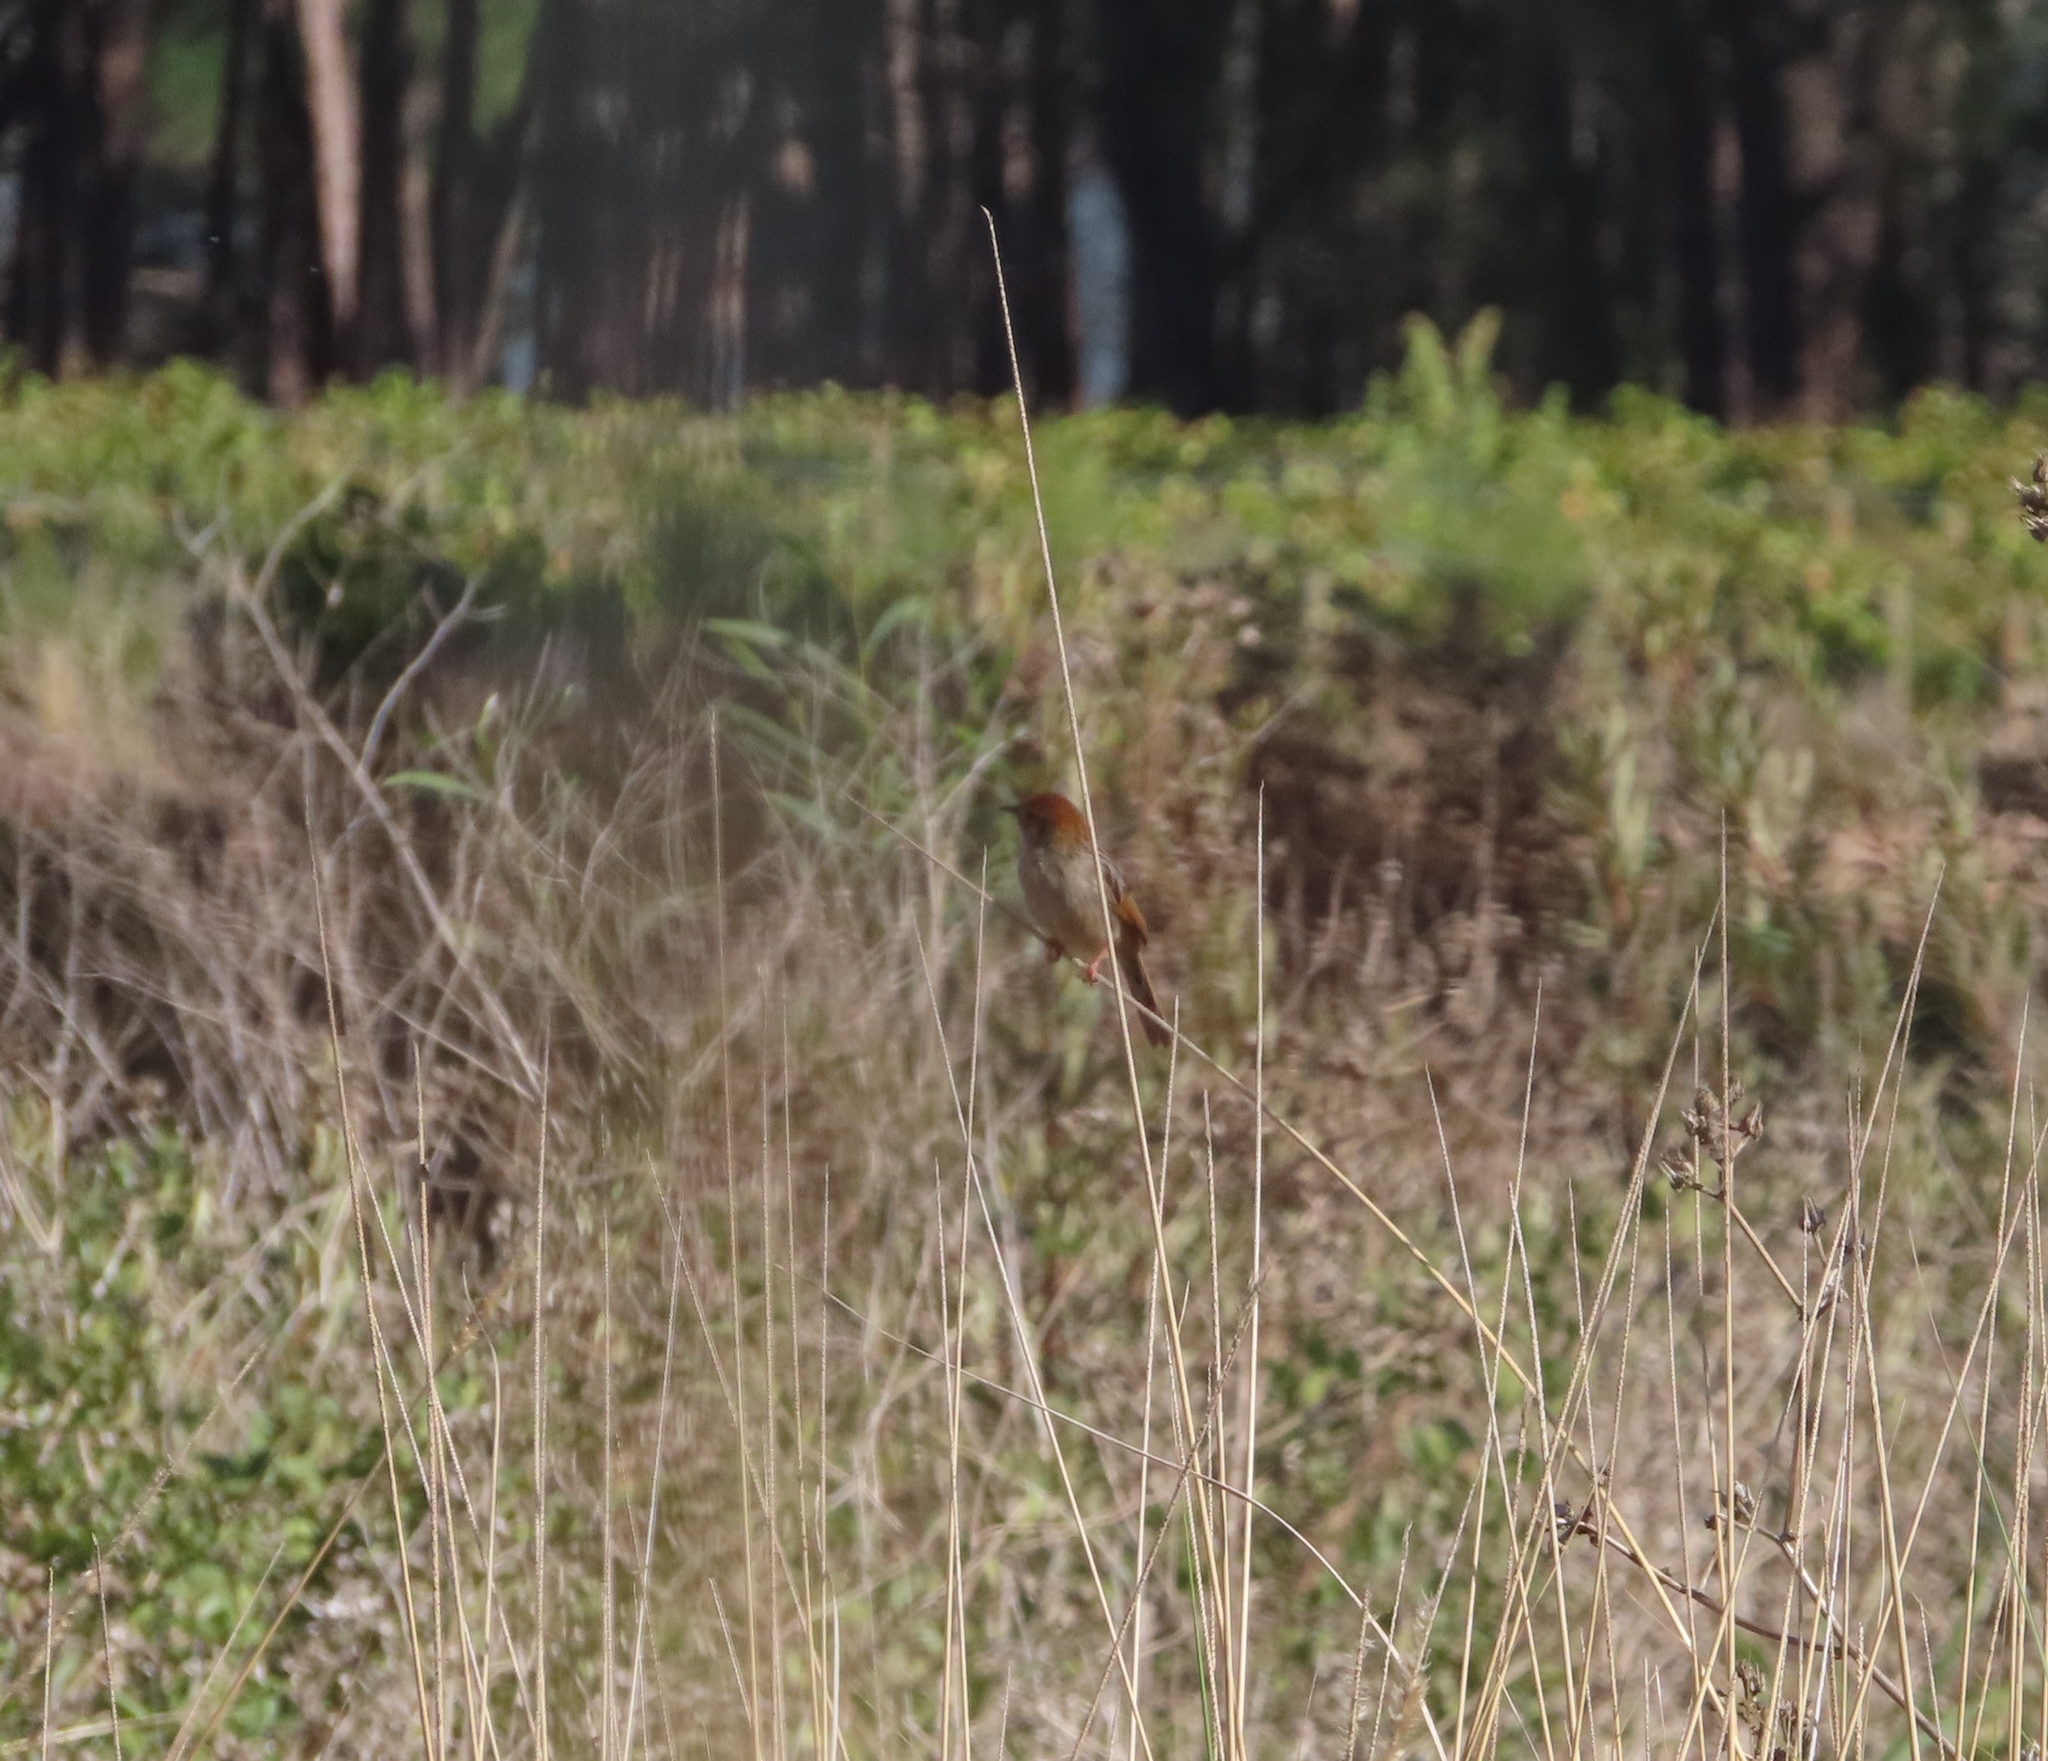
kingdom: Animalia
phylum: Chordata
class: Aves
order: Passeriformes
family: Macrosphenidae
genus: Sphenoeacus
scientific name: Sphenoeacus afer
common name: Cape grassbird
